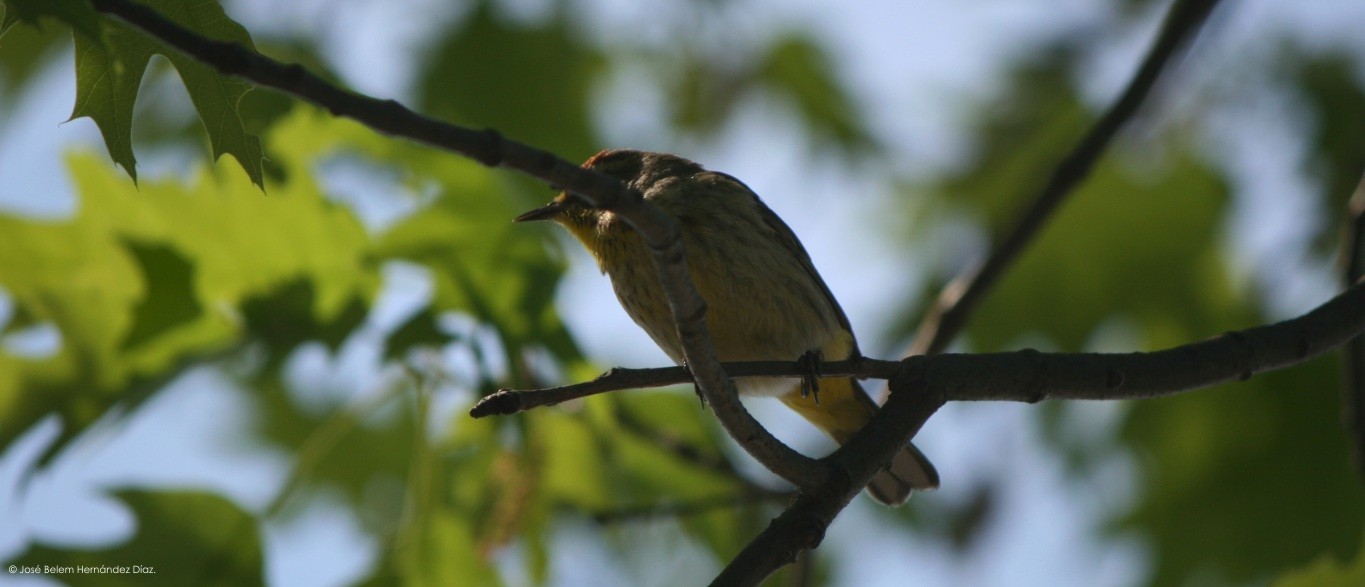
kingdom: Animalia
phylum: Chordata
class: Aves
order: Passeriformes
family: Parulidae
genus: Setophaga
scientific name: Setophaga palmarum
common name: Palm warbler
